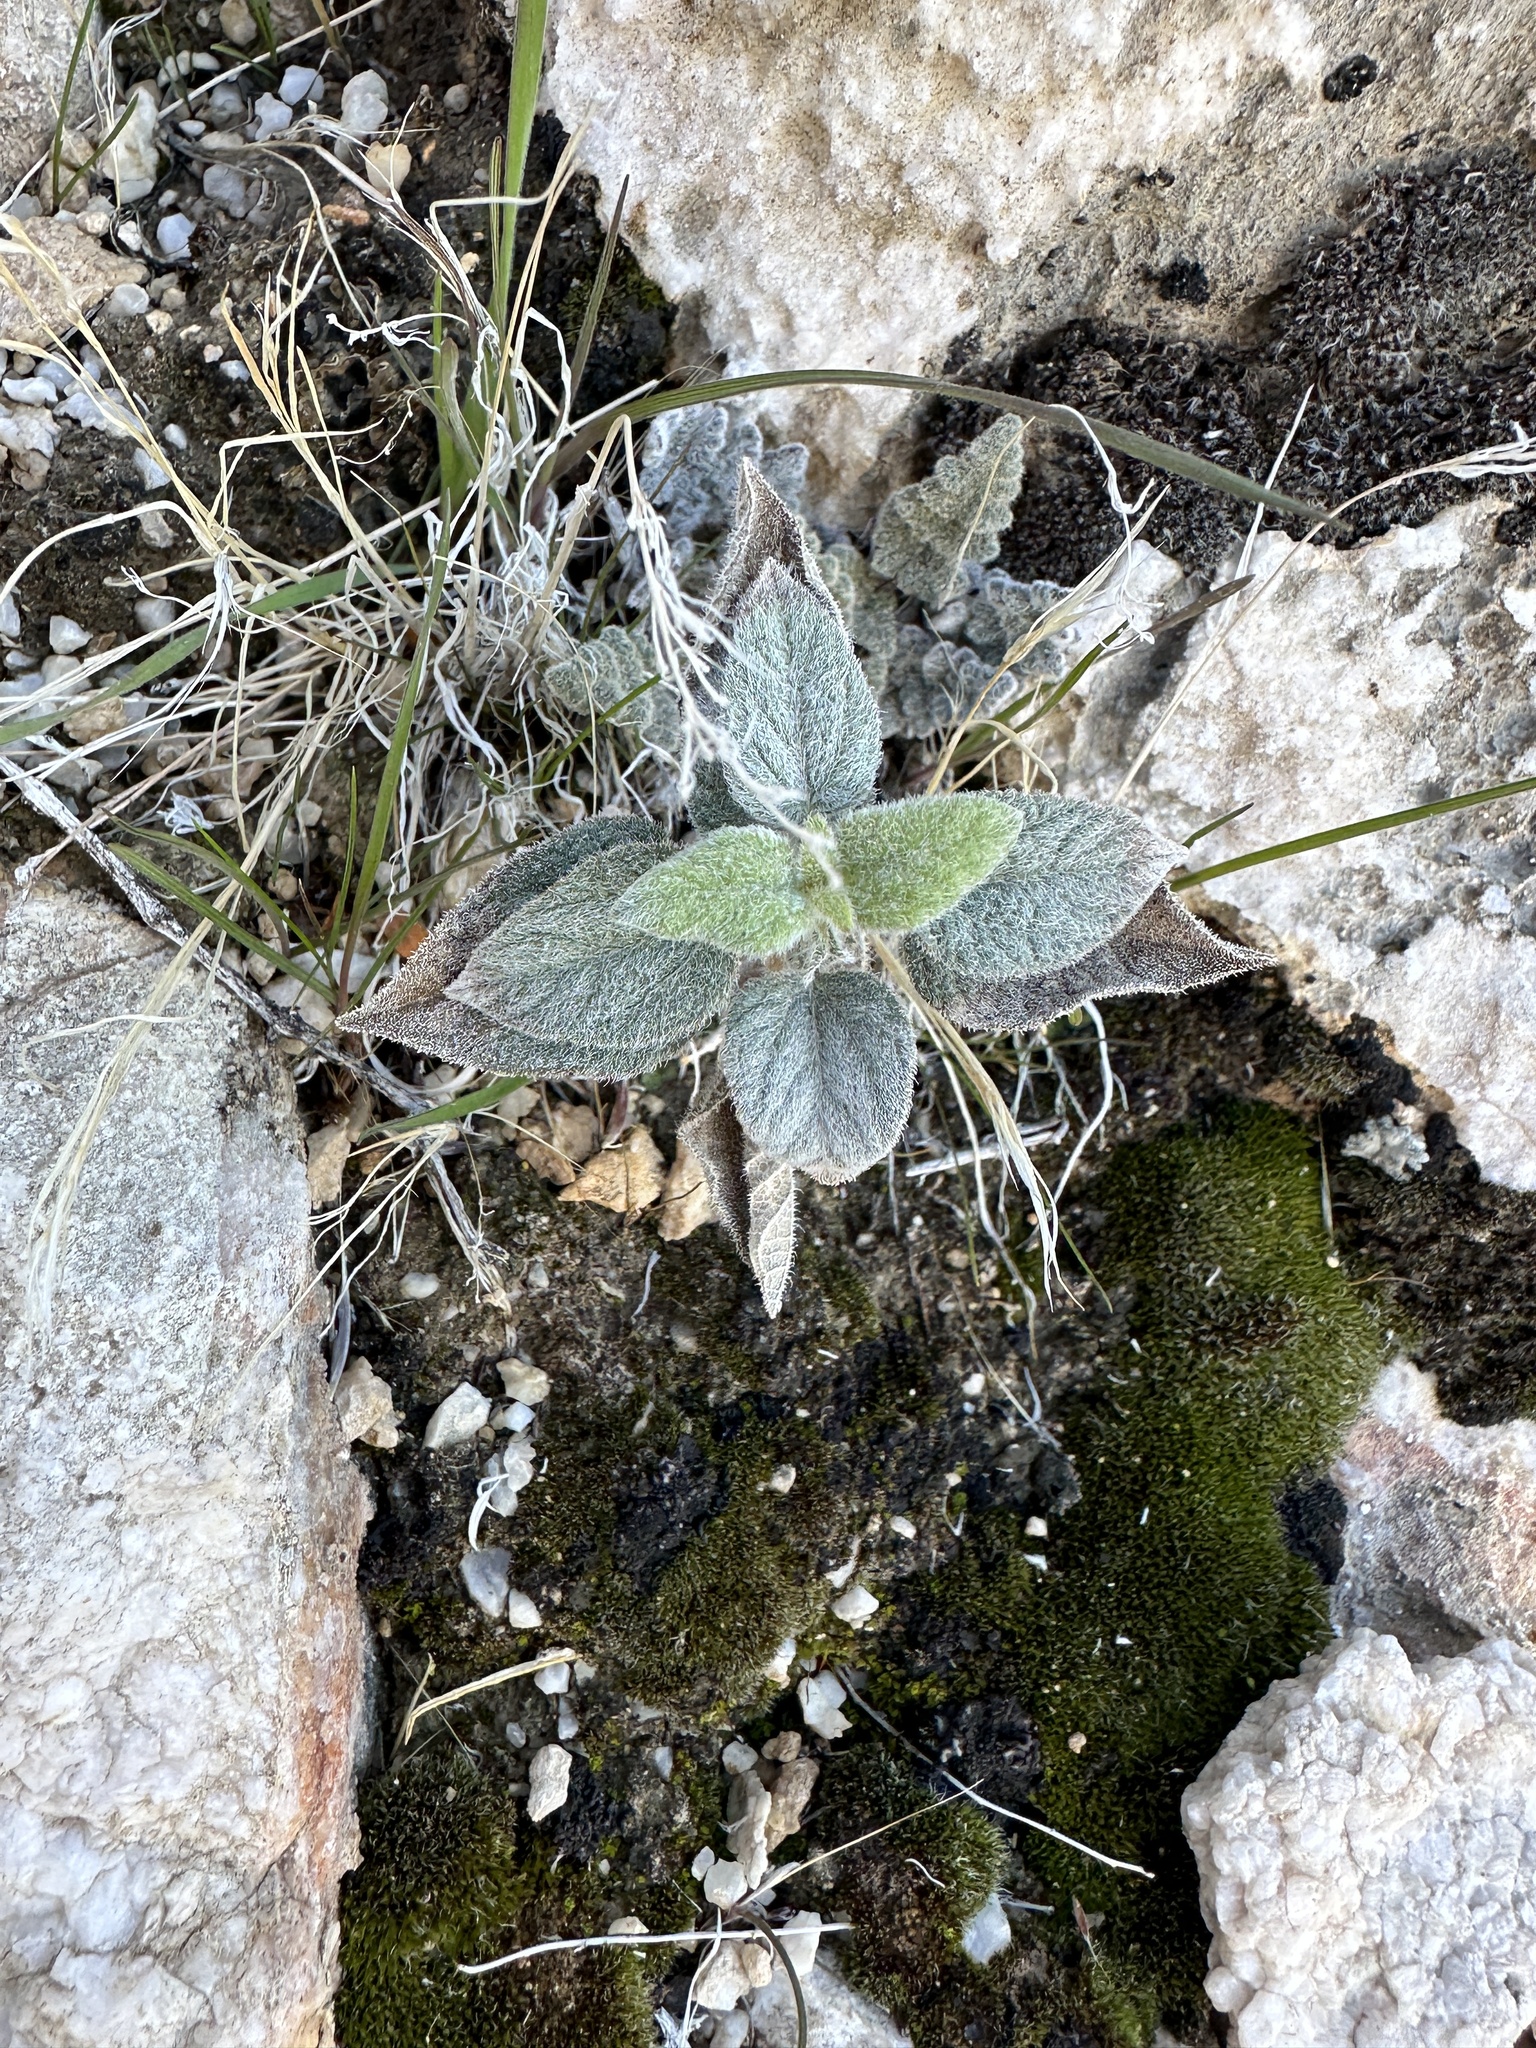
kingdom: Plantae
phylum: Tracheophyta
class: Magnoliopsida
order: Asterales
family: Asteraceae
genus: Bahiopsis
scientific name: Bahiopsis reticulata
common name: Death valley goldeneye
